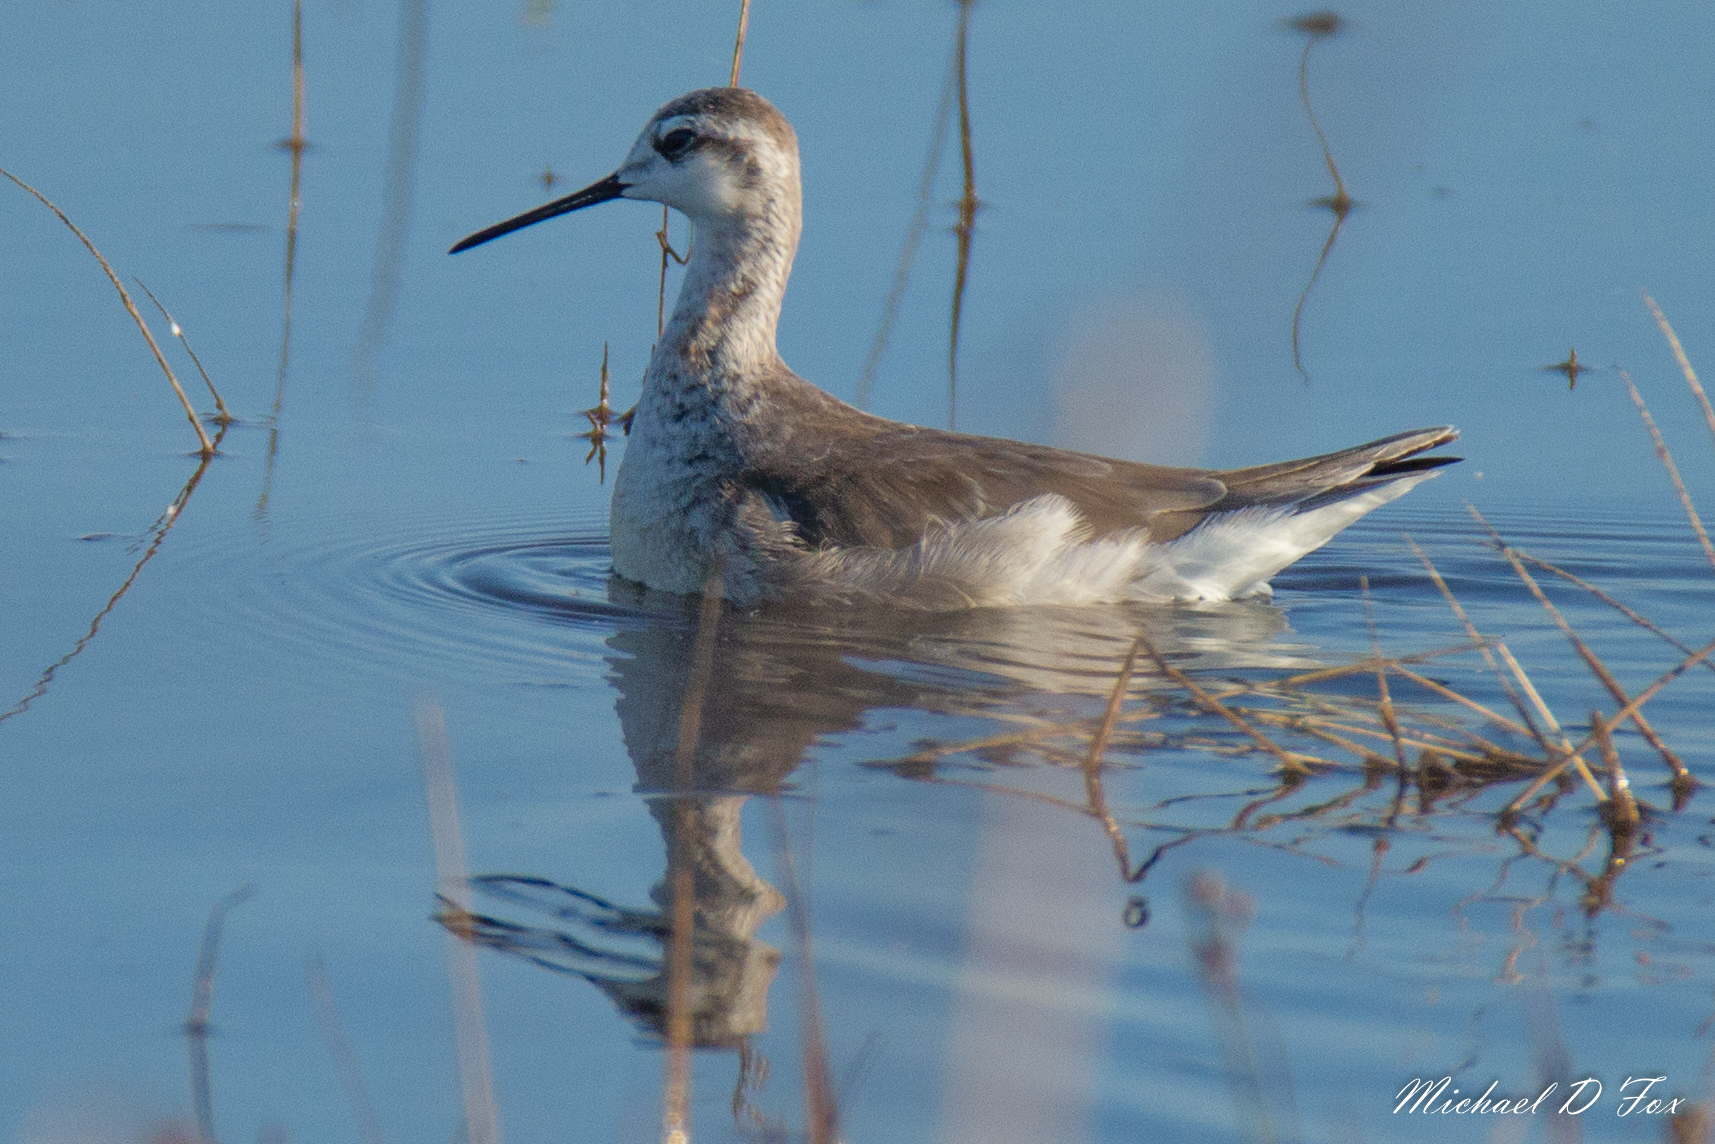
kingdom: Animalia
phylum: Chordata
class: Aves
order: Charadriiformes
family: Scolopacidae
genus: Phalaropus
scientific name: Phalaropus tricolor
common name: Wilson's phalarope
